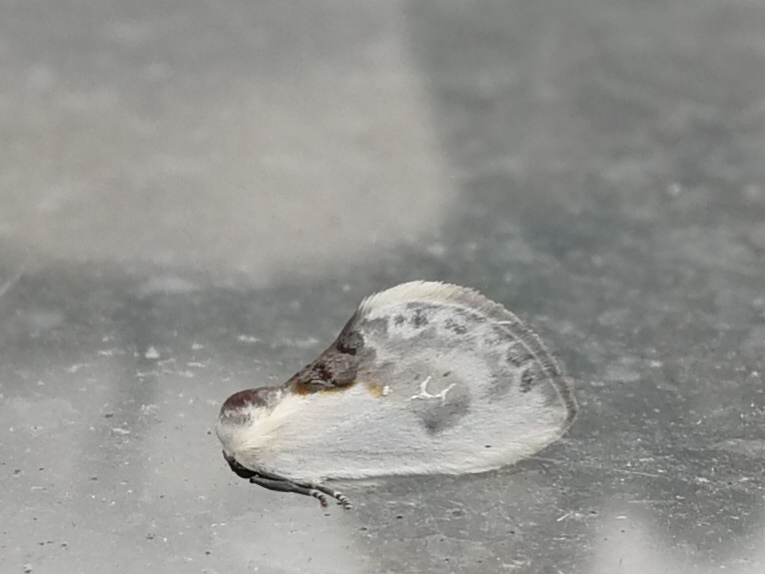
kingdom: Animalia
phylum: Arthropoda
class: Insecta
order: Lepidoptera
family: Drepanidae
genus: Cilix
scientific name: Cilix glaucata
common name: Chinese character
